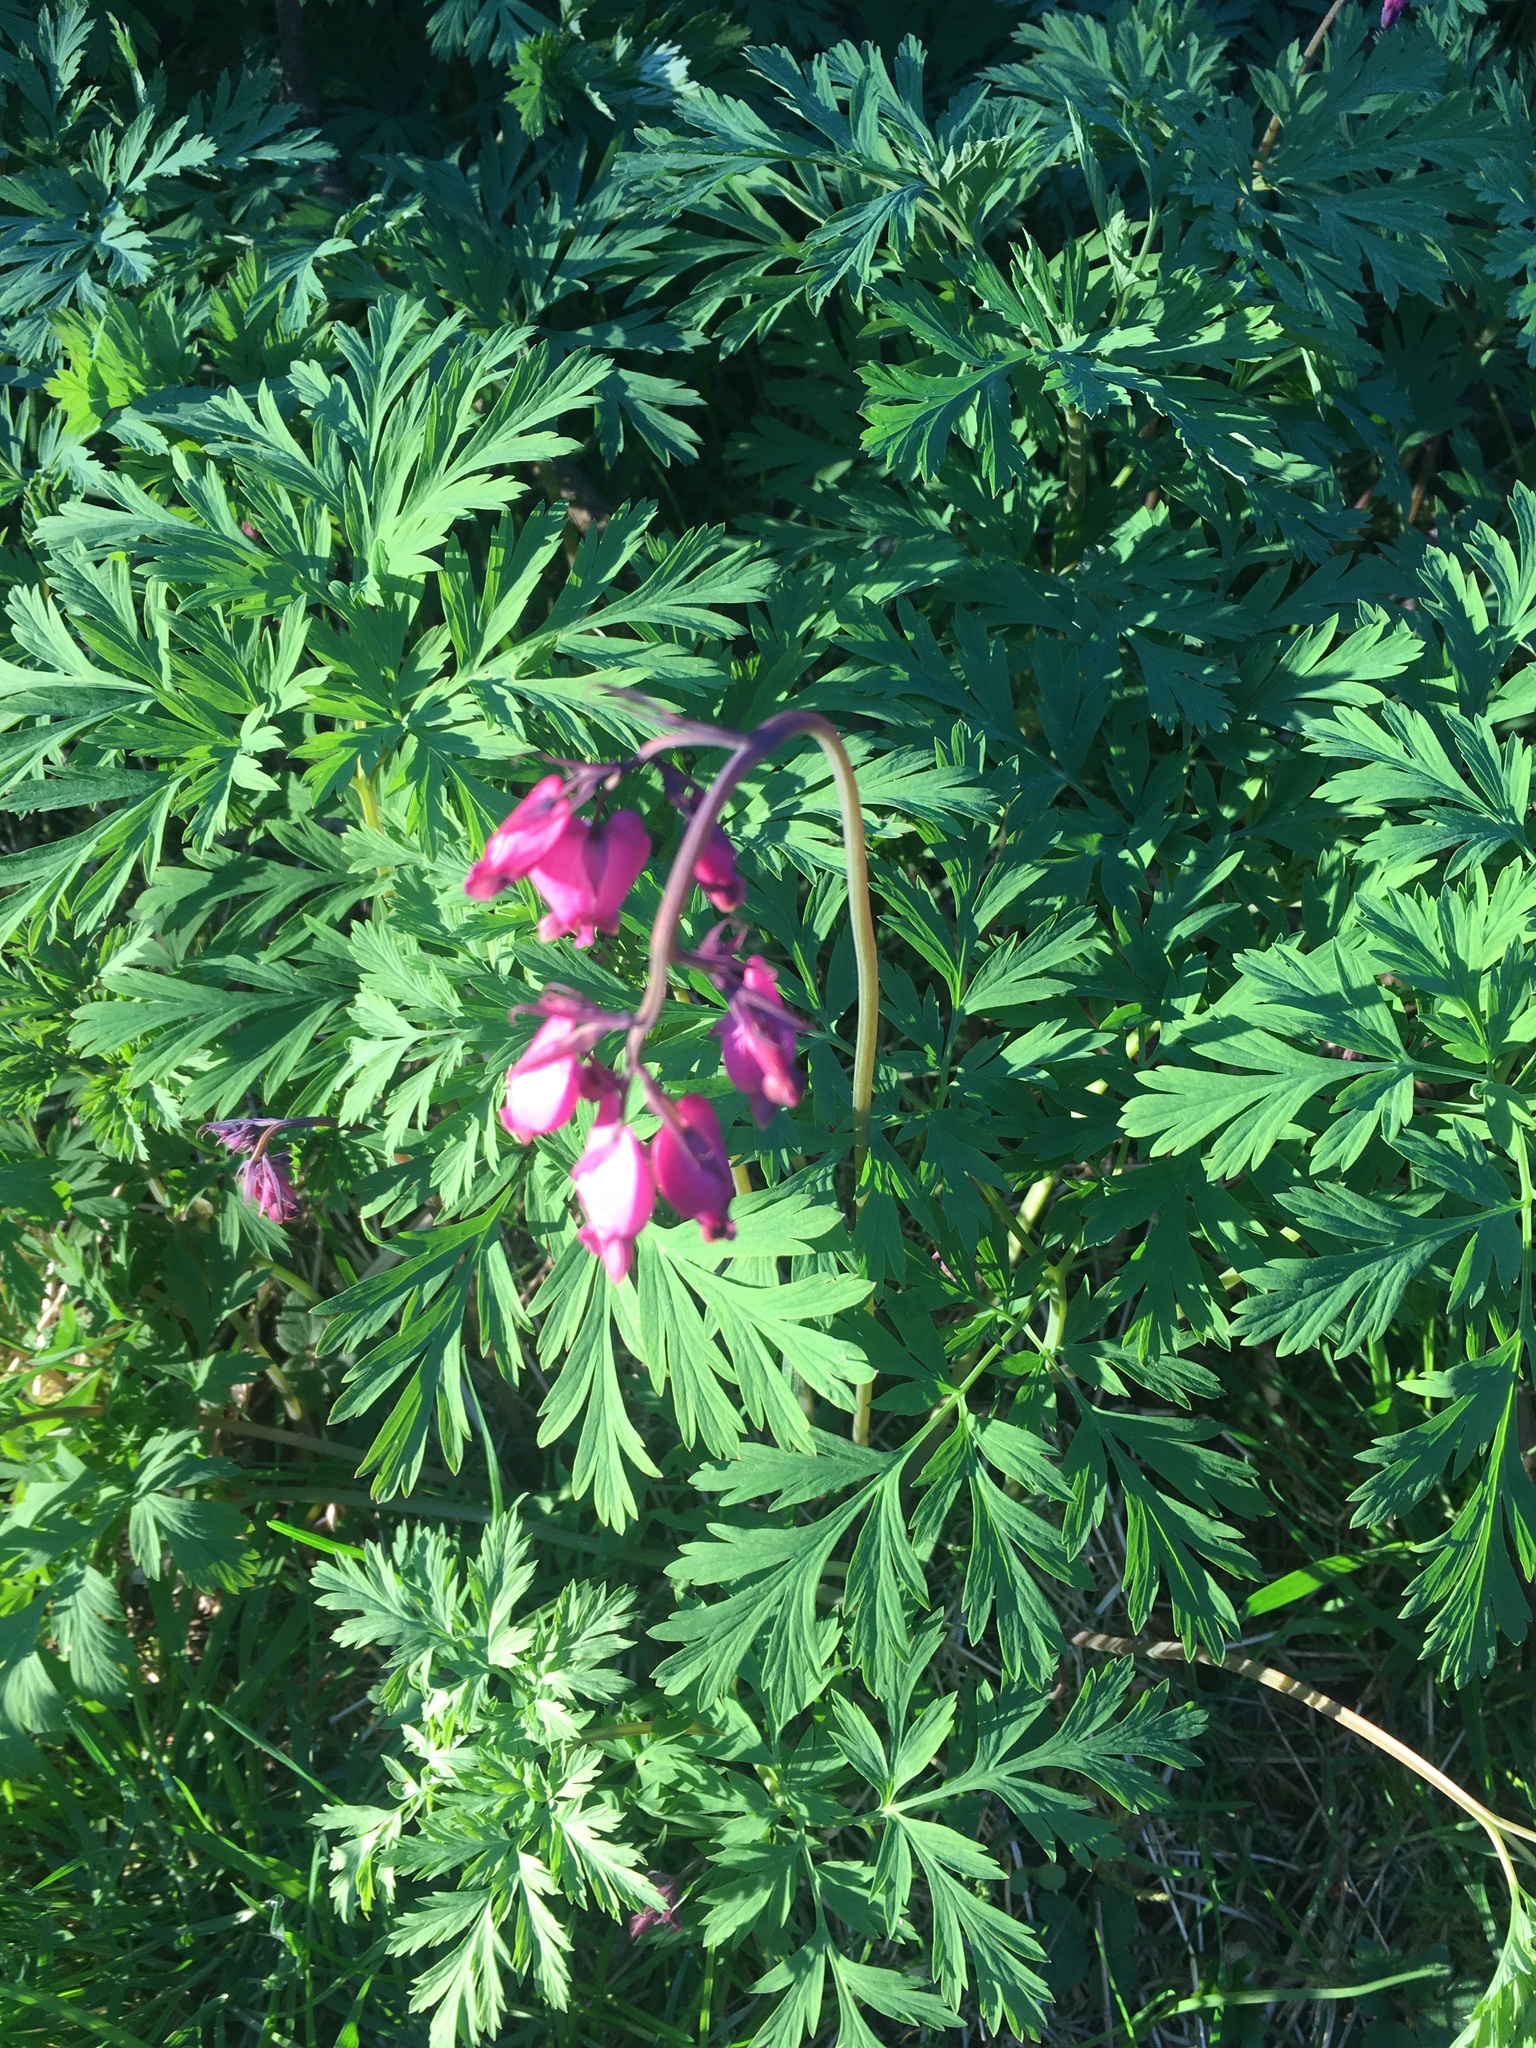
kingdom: Plantae
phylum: Tracheophyta
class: Magnoliopsida
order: Ranunculales
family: Papaveraceae
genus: Dicentra
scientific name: Dicentra formosa
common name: Bleeding-heart
